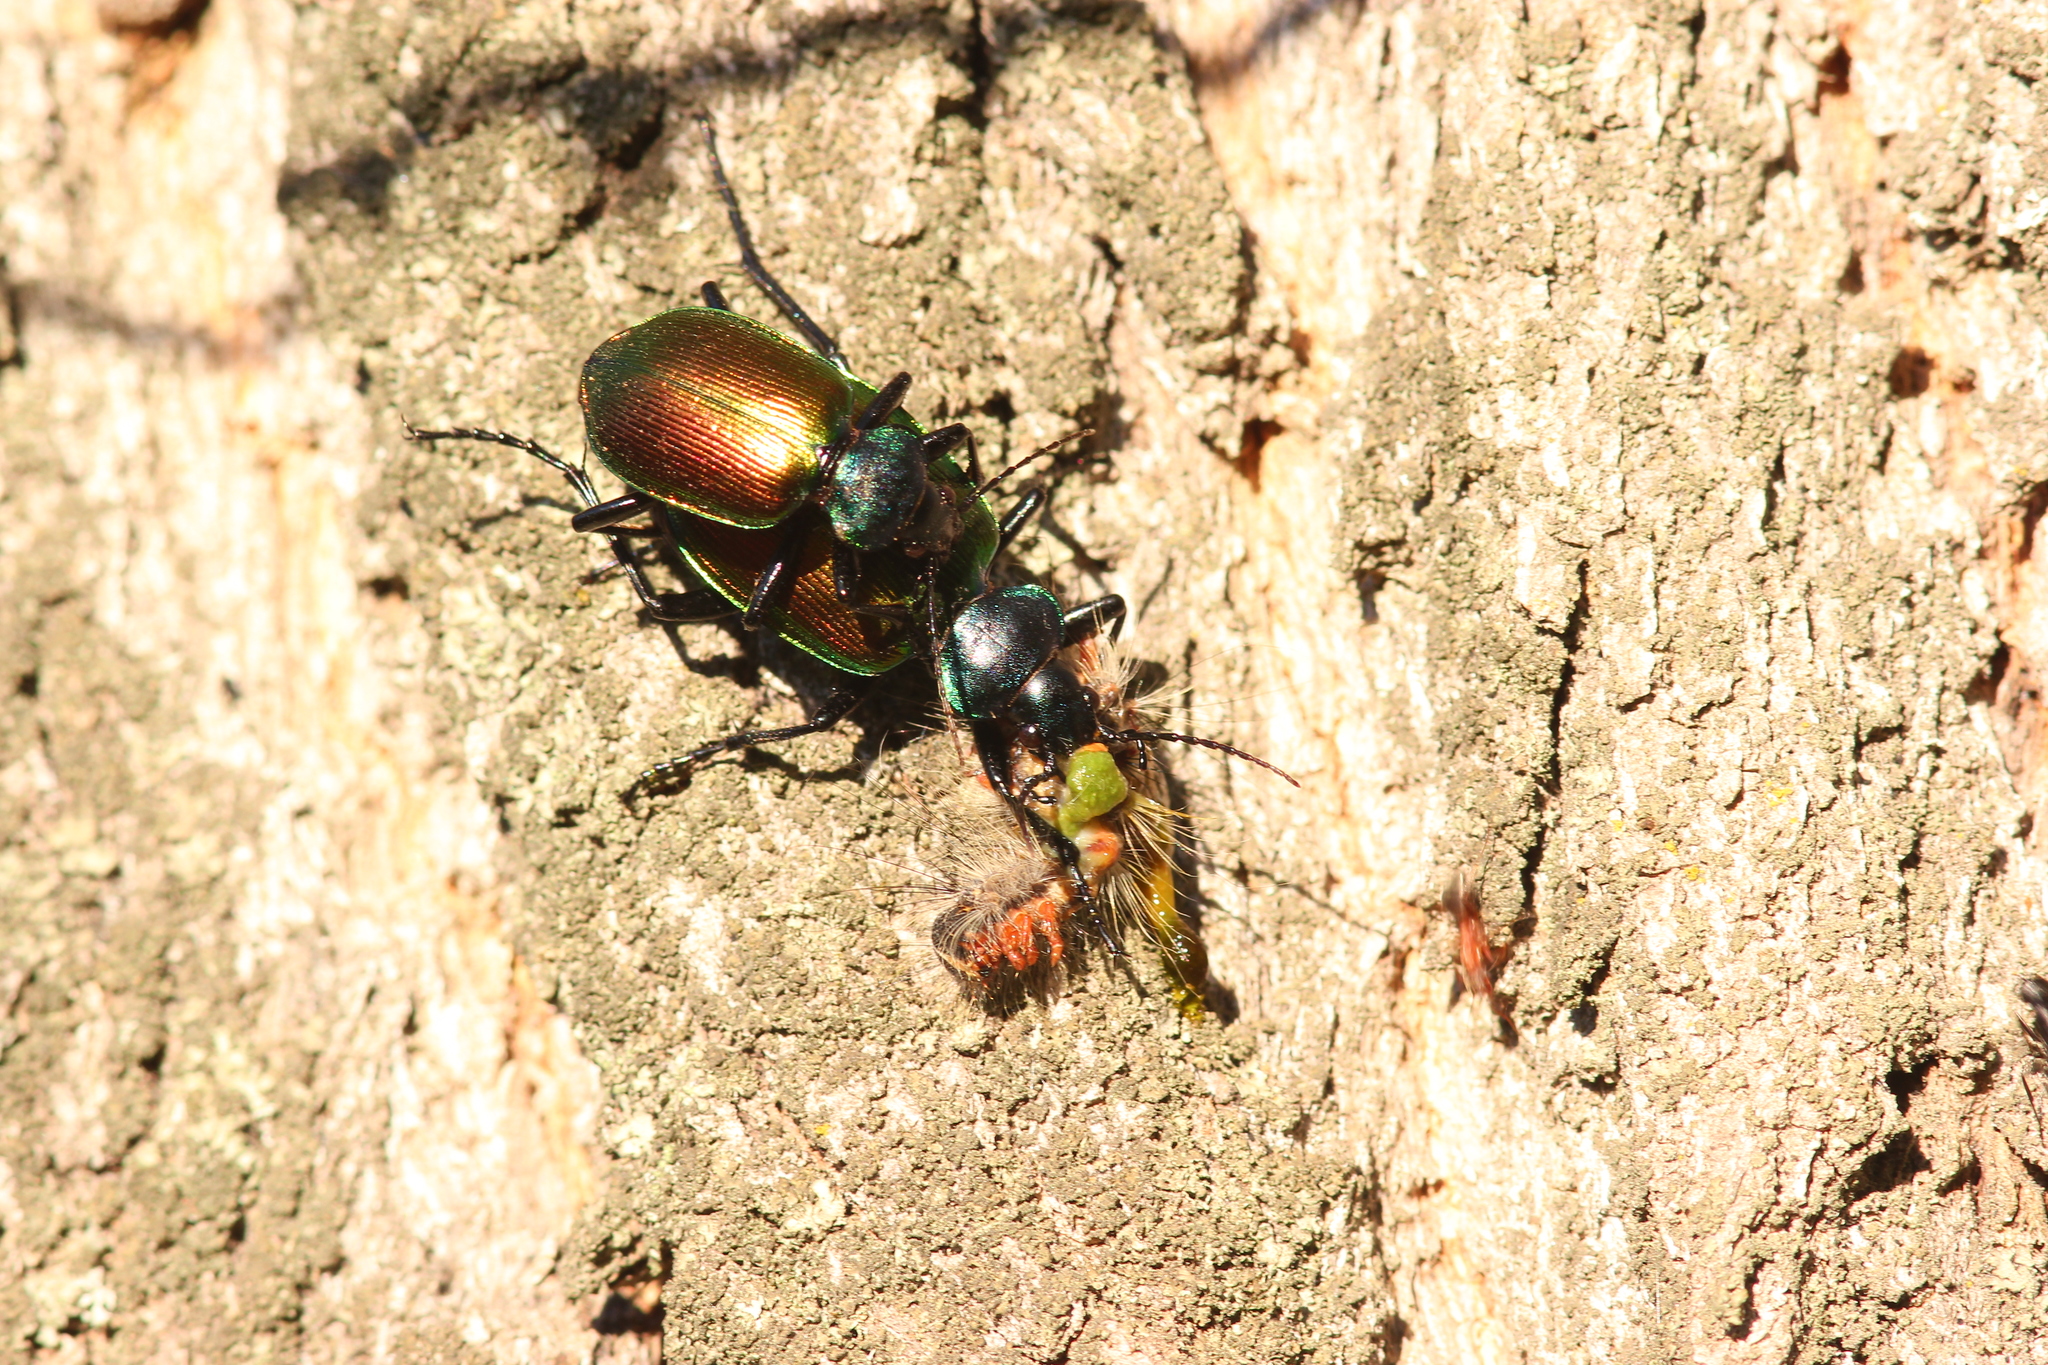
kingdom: Animalia
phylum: Arthropoda
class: Insecta
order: Coleoptera
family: Carabidae
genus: Calosoma
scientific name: Calosoma sycophanta
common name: Forest caterpillar hunter
